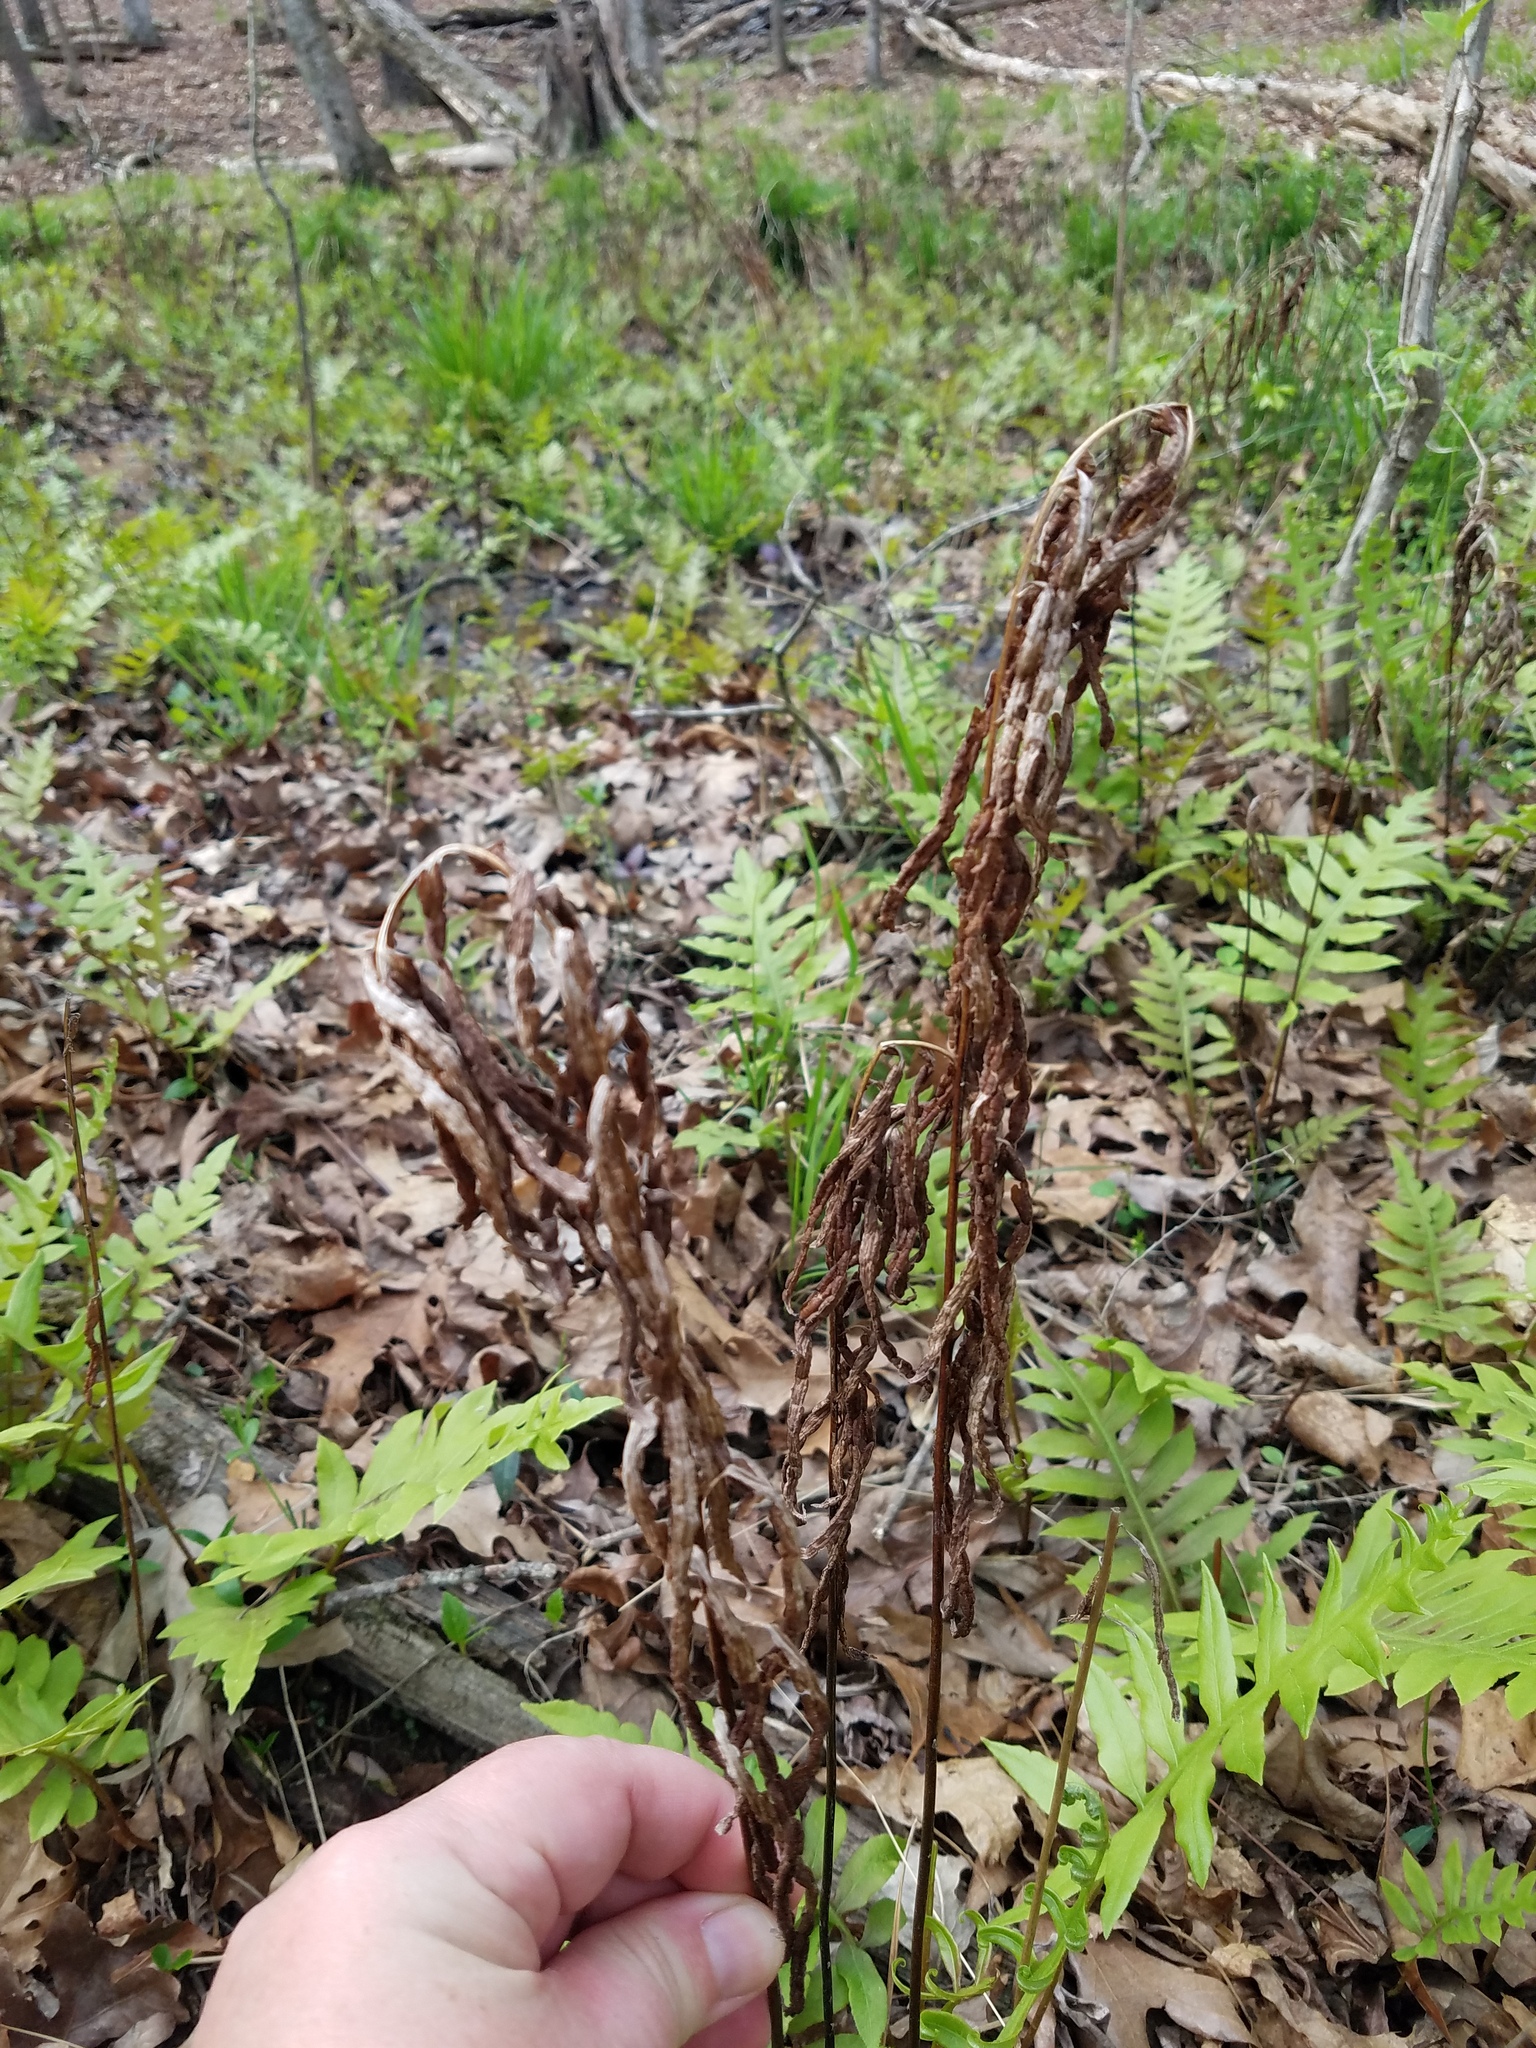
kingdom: Plantae
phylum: Tracheophyta
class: Polypodiopsida
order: Polypodiales
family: Blechnaceae
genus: Lorinseria
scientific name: Lorinseria areolata
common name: Dwarf chain fern
